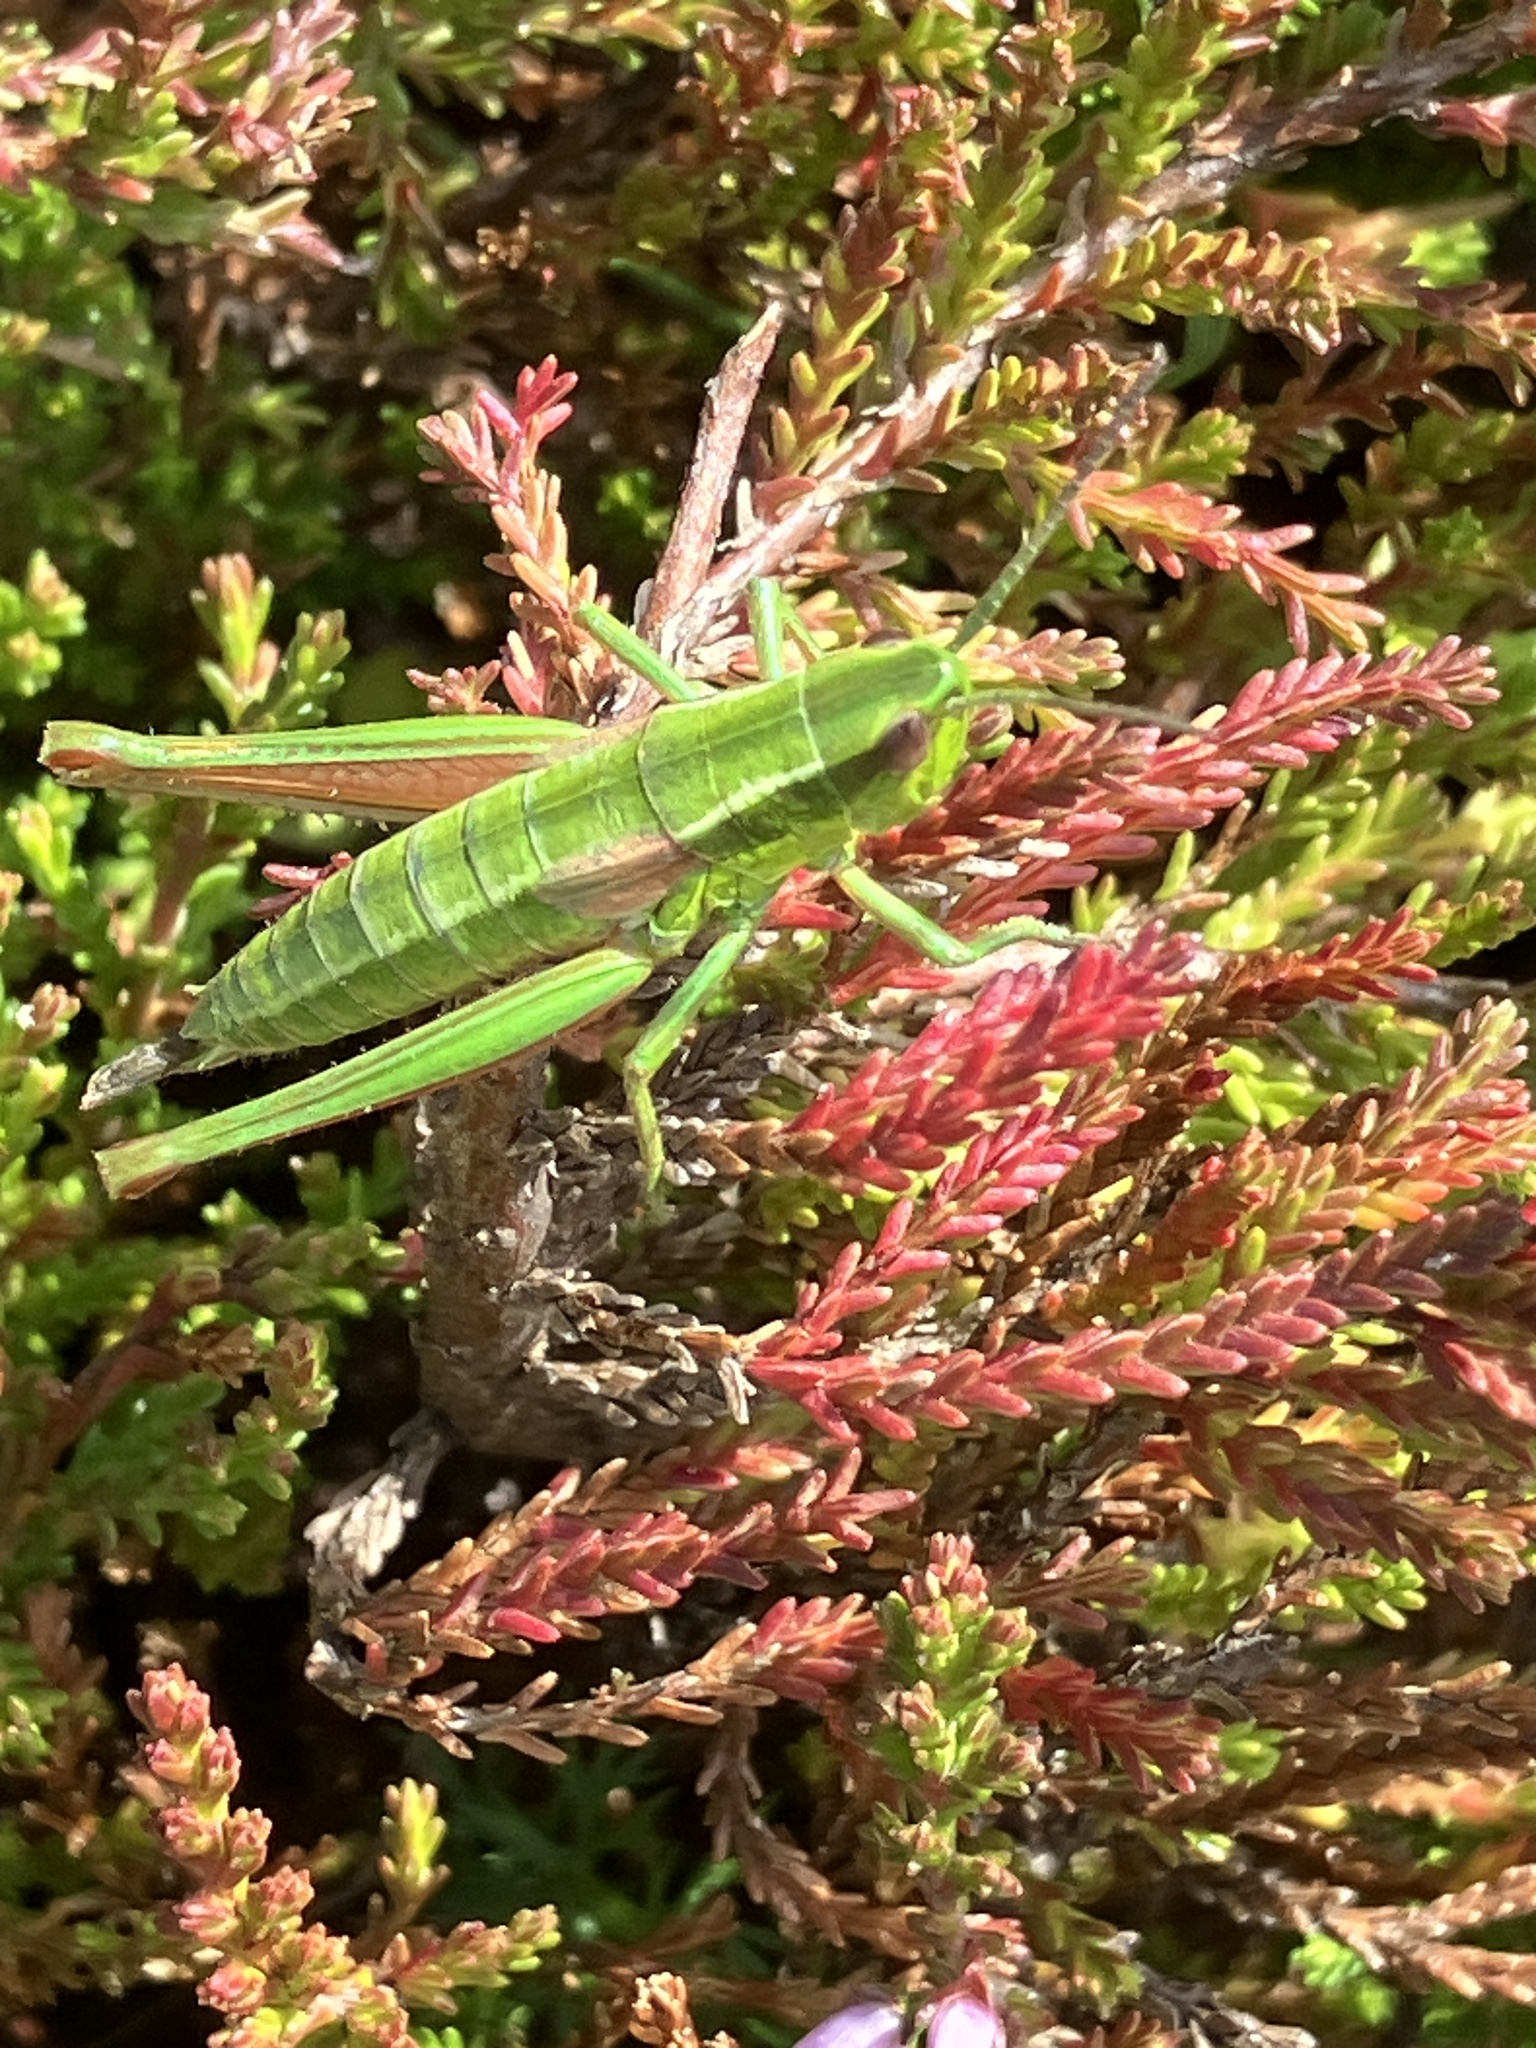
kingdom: Animalia
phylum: Arthropoda
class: Insecta
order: Orthoptera
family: Acrididae
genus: Euthystira
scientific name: Euthystira brachyptera
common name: Small gold grasshopper
